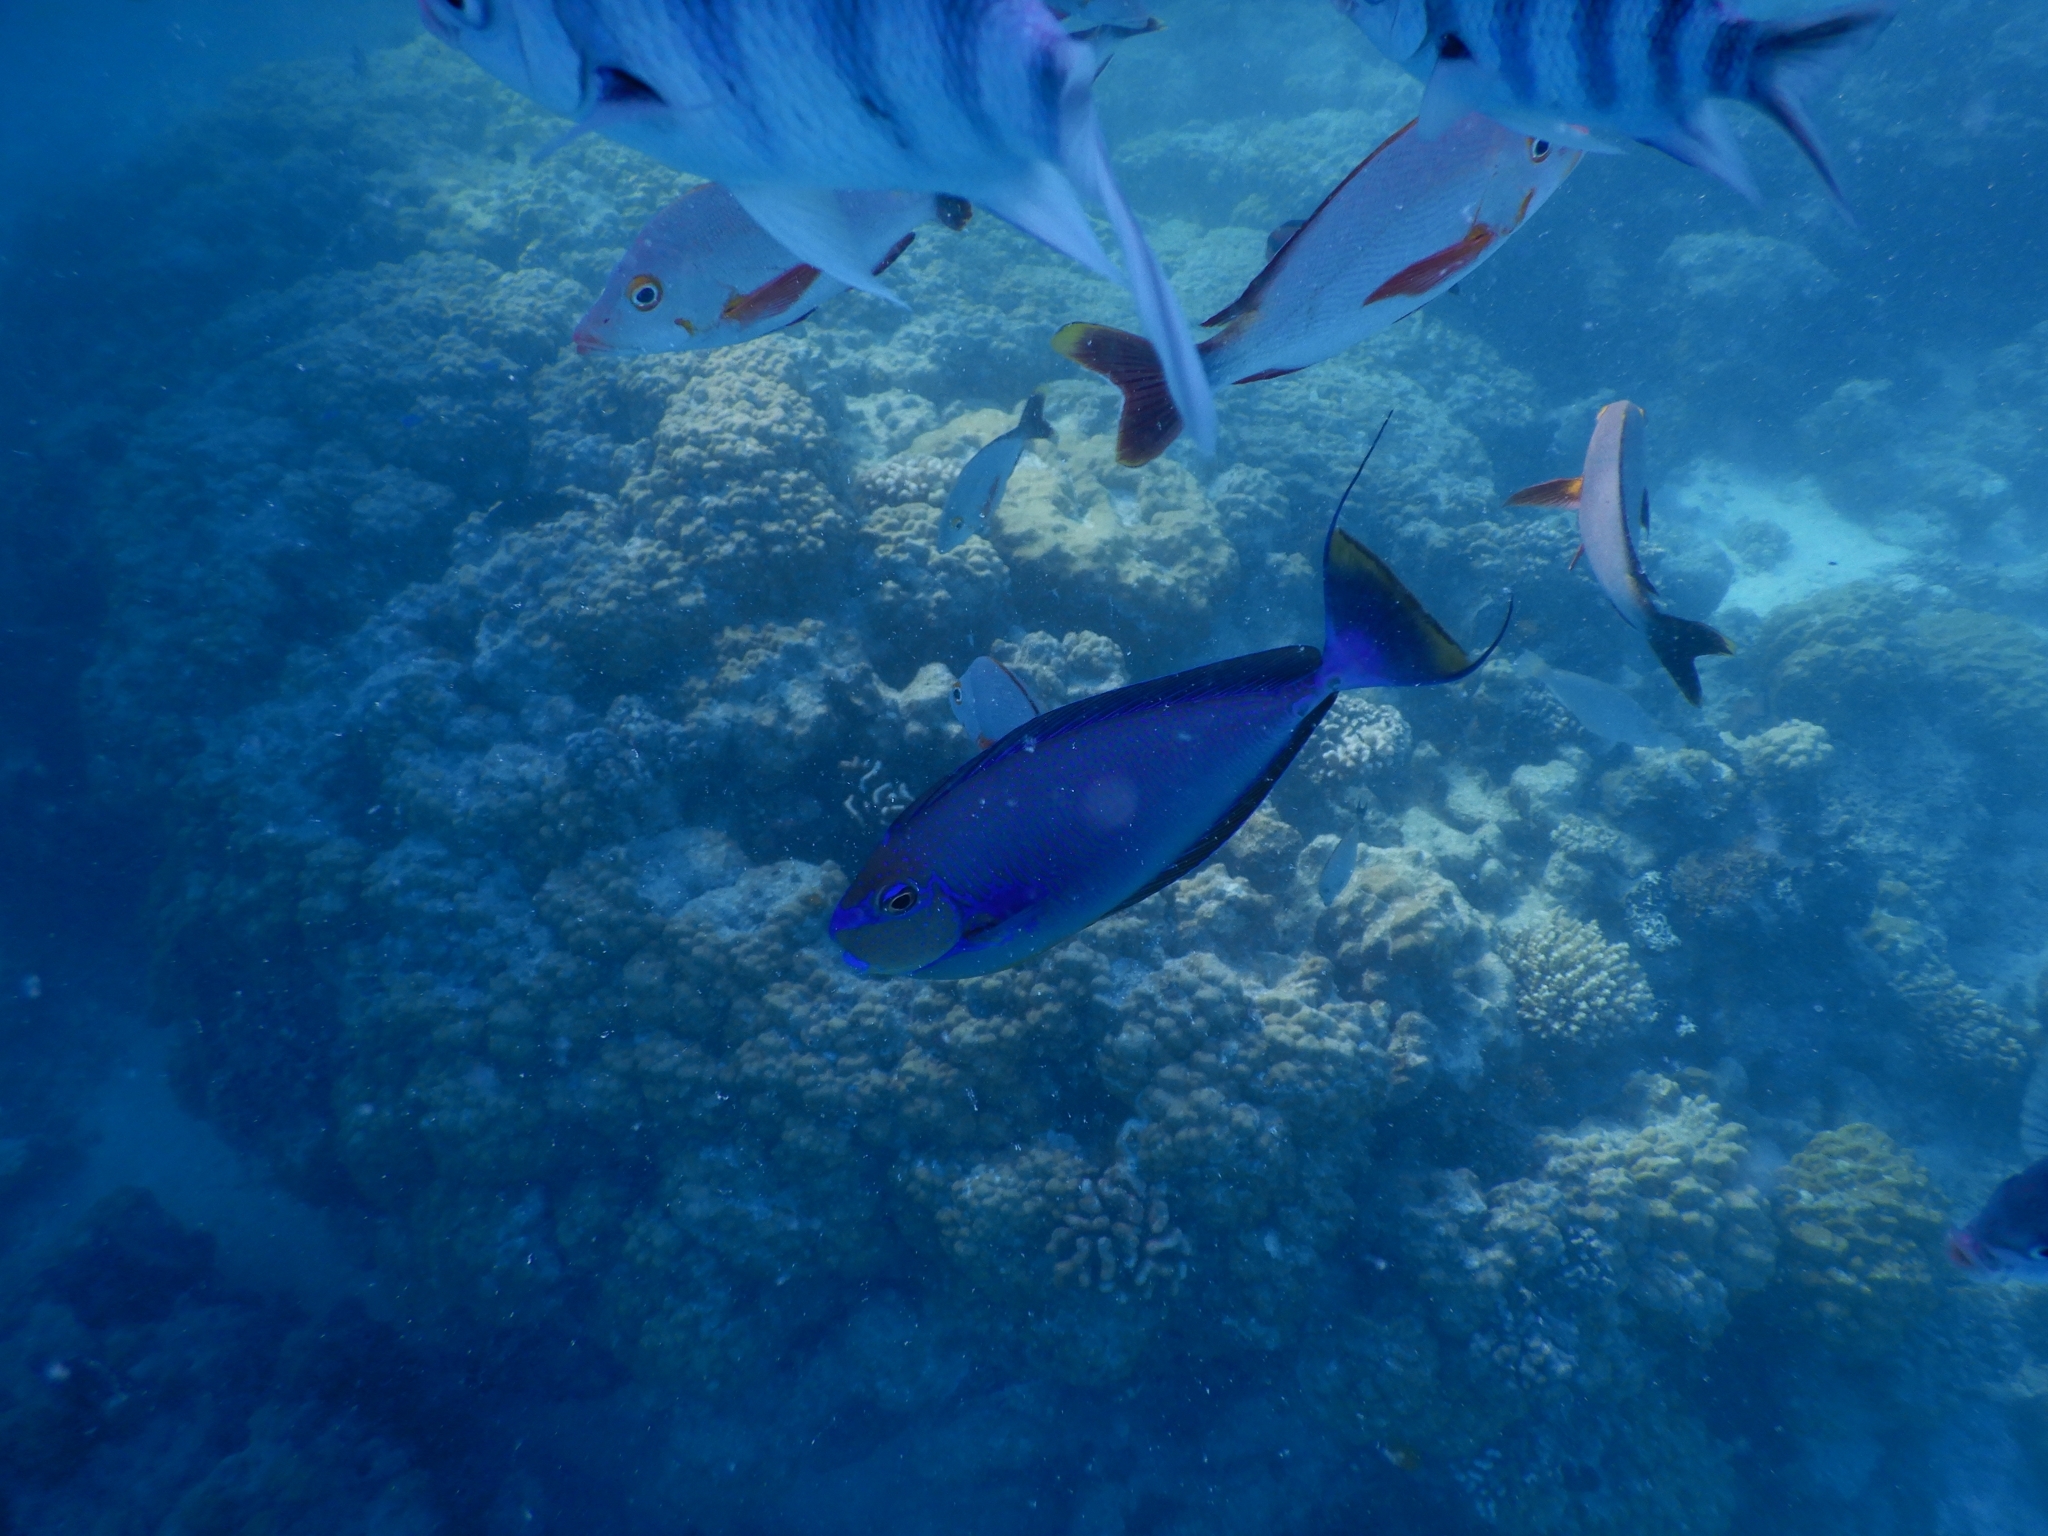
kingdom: Animalia
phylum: Chordata
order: Perciformes
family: Acanthuridae
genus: Naso
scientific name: Naso vlamingii
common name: Big-nose unicorn
